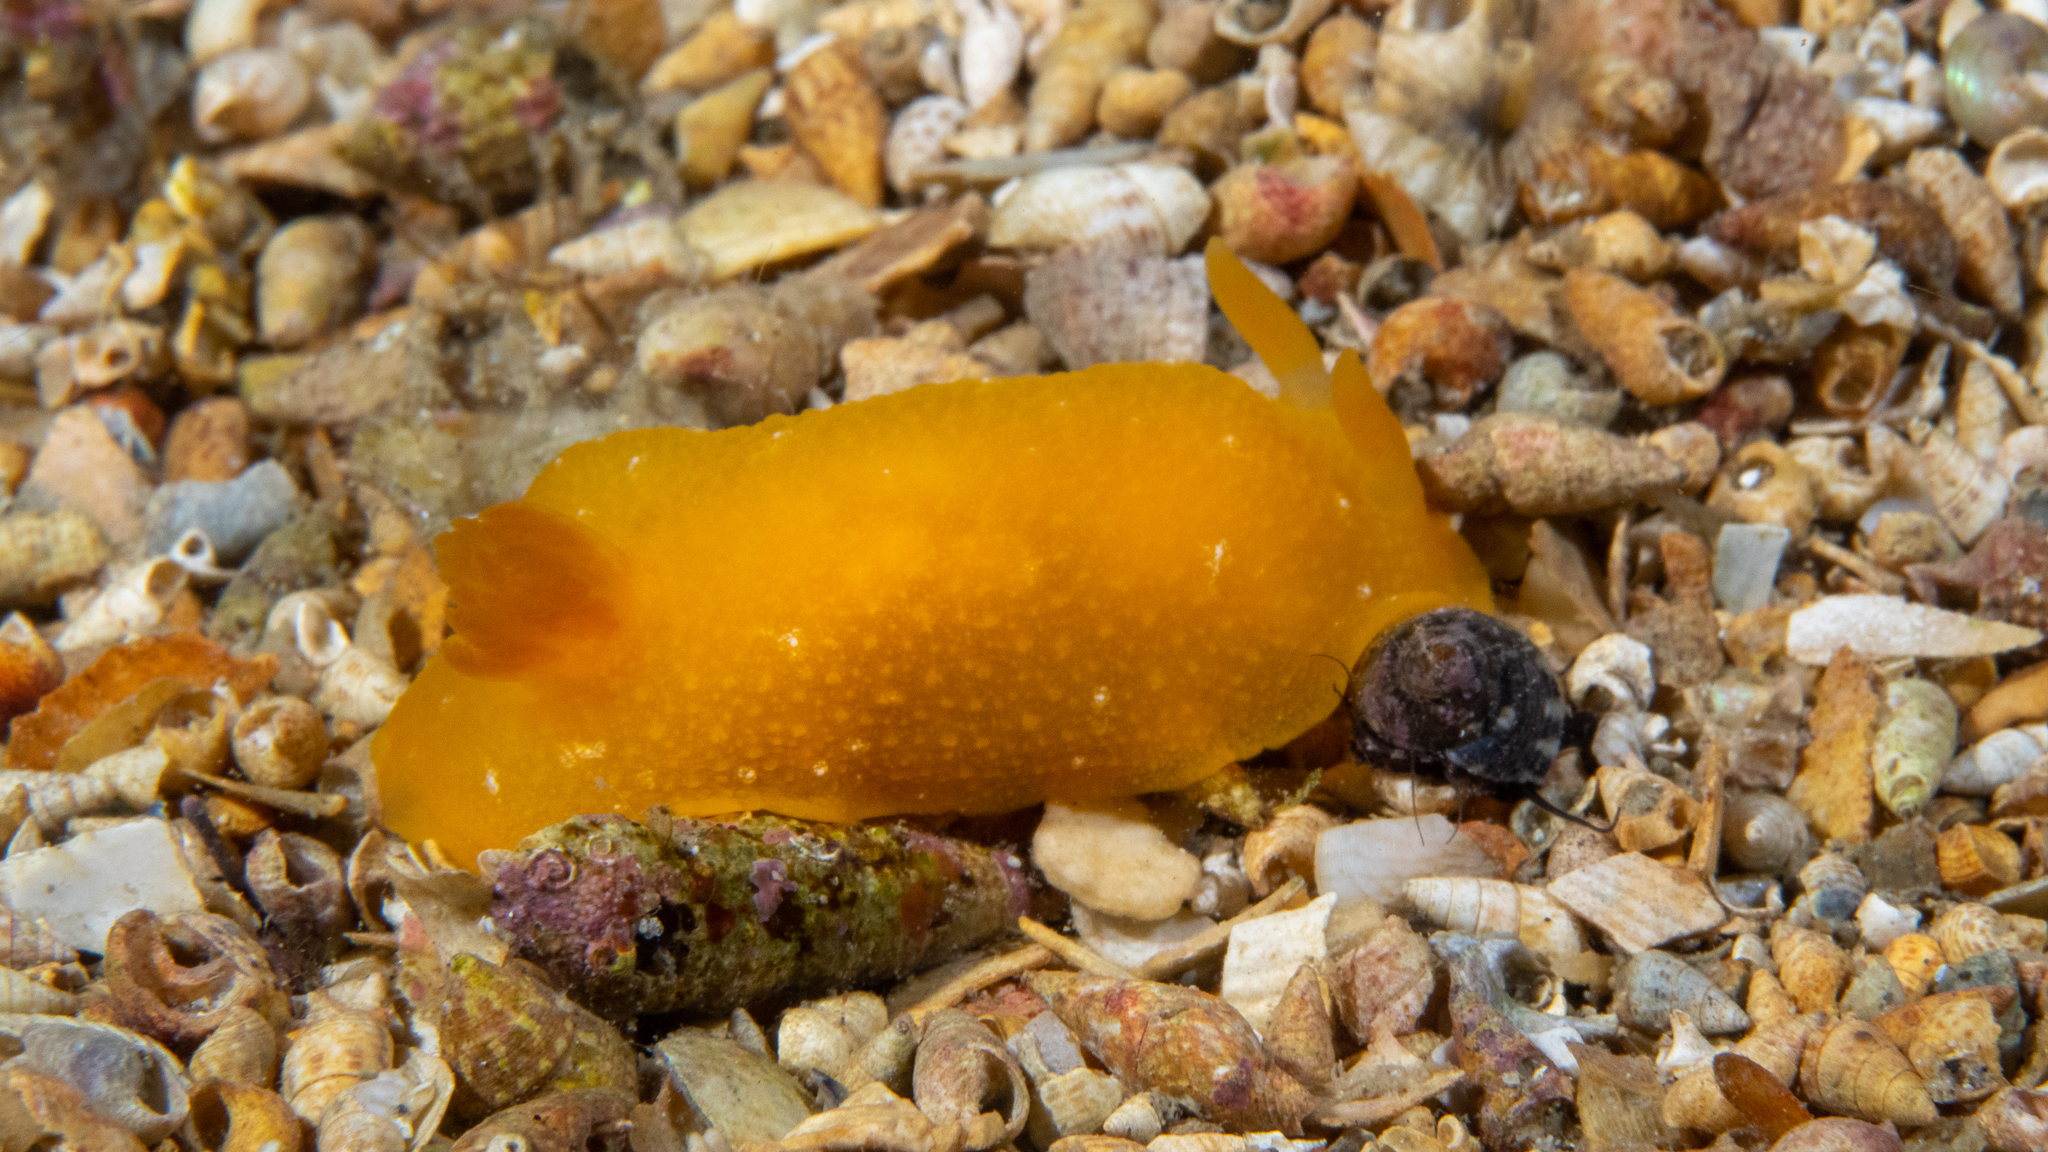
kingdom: Animalia
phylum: Mollusca
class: Gastropoda
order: Nudibranchia
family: Dendrodorididae
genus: Doriopsilla
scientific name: Doriopsilla carneola
